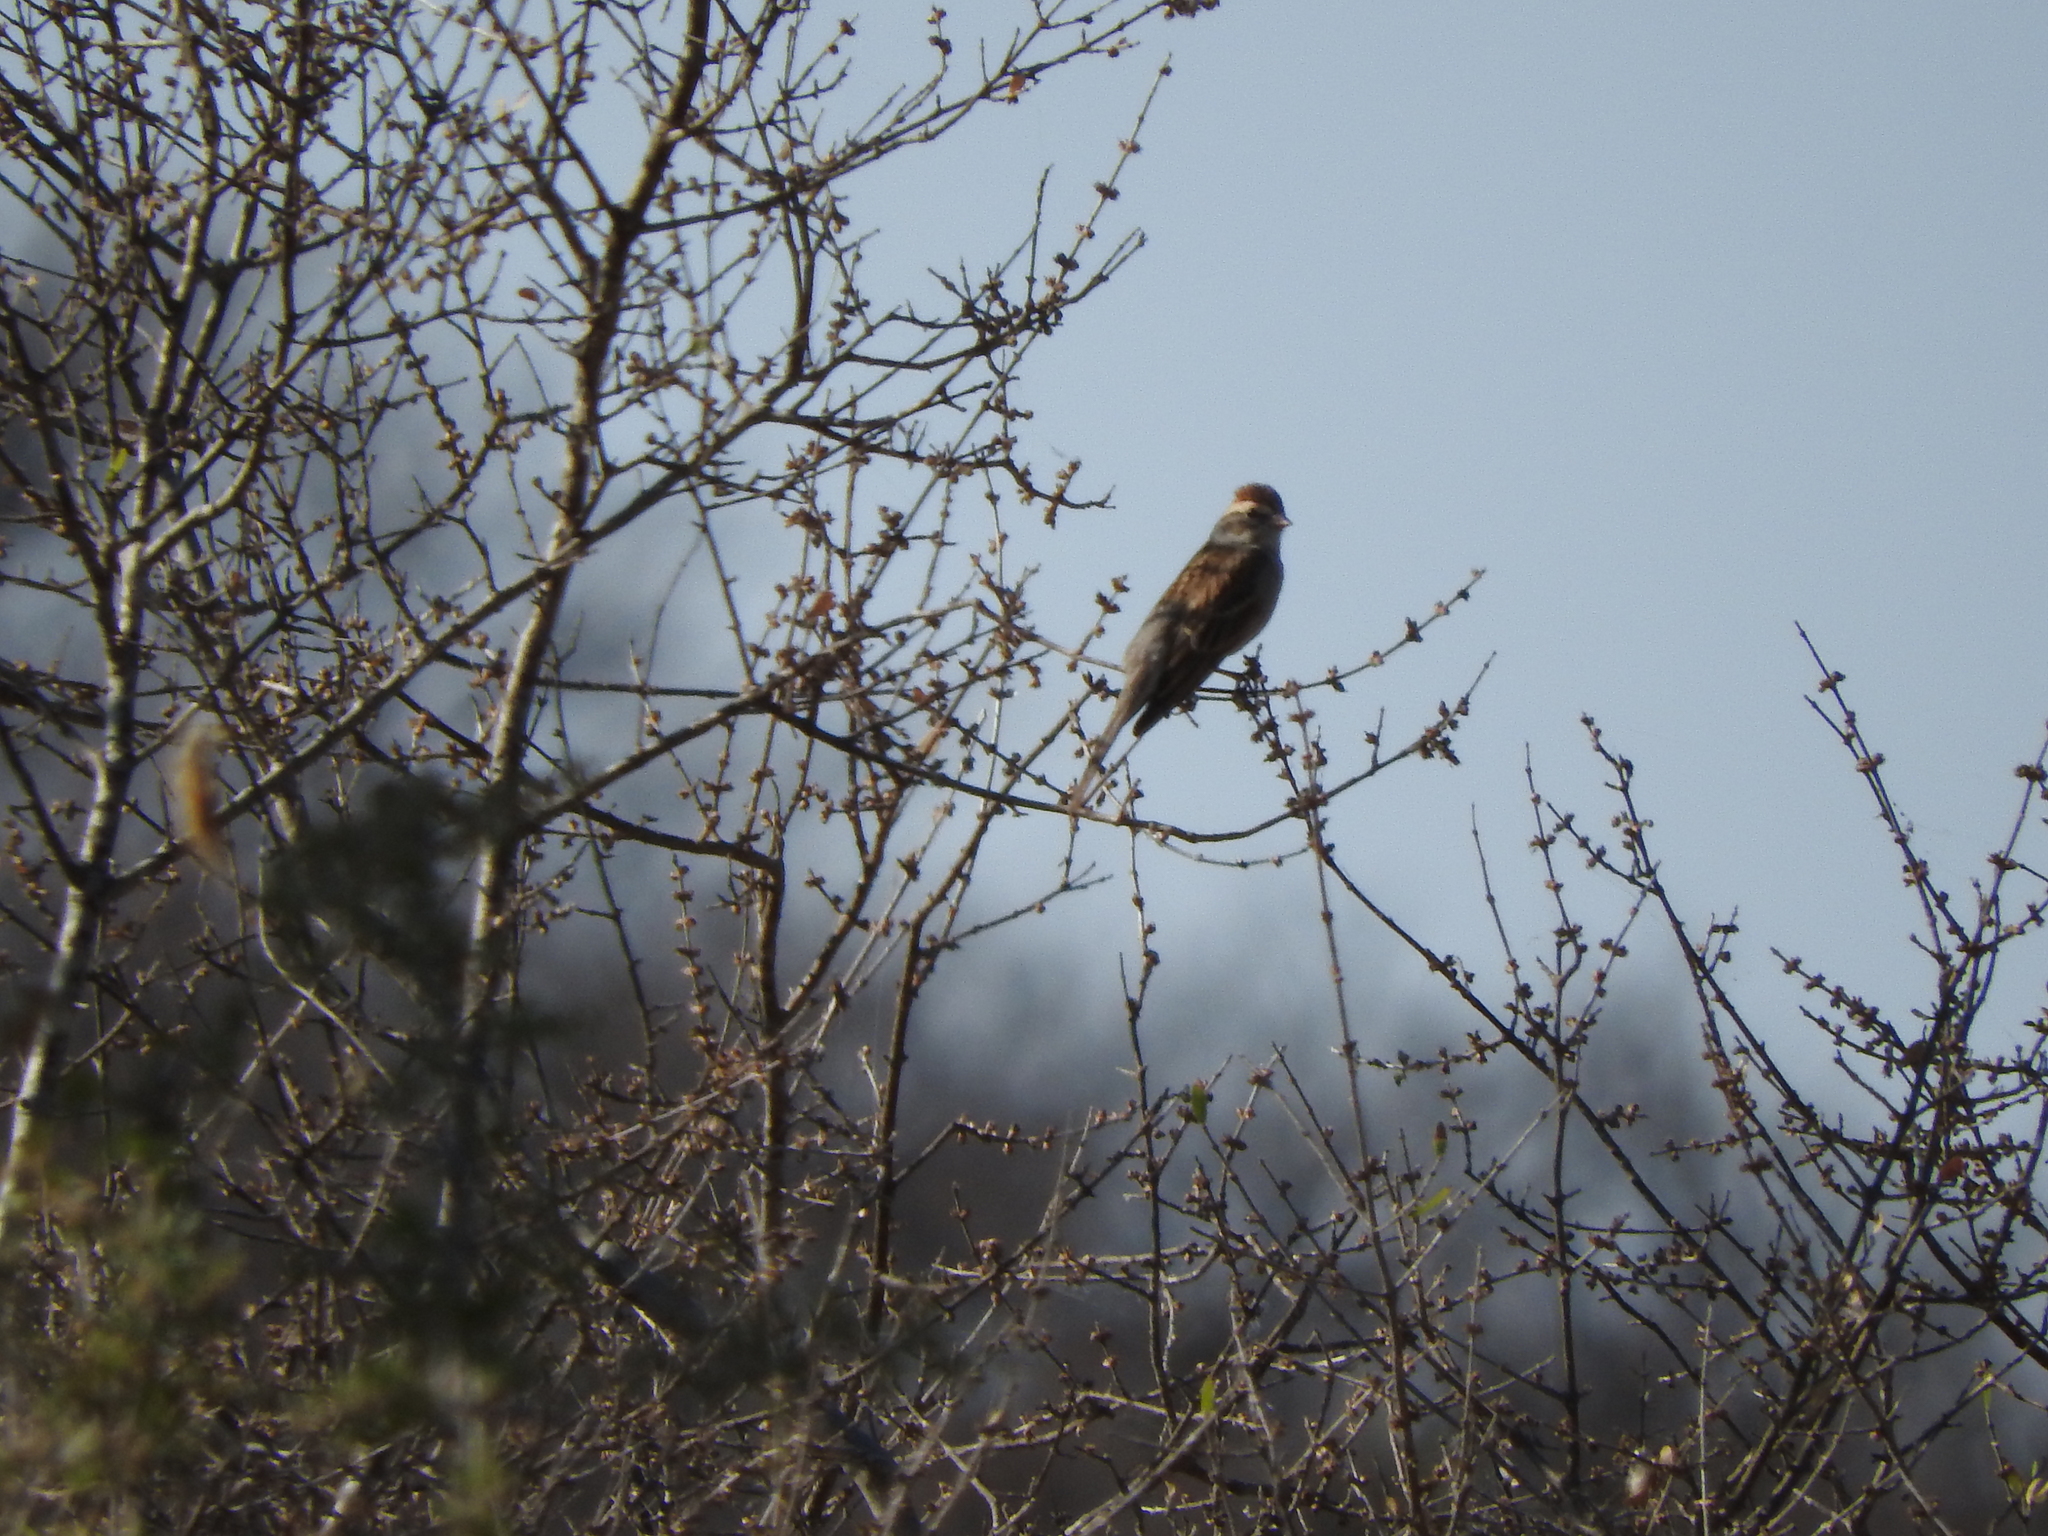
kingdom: Animalia
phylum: Chordata
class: Aves
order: Passeriformes
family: Passerellidae
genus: Spizella
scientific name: Spizella passerina
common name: Chipping sparrow
